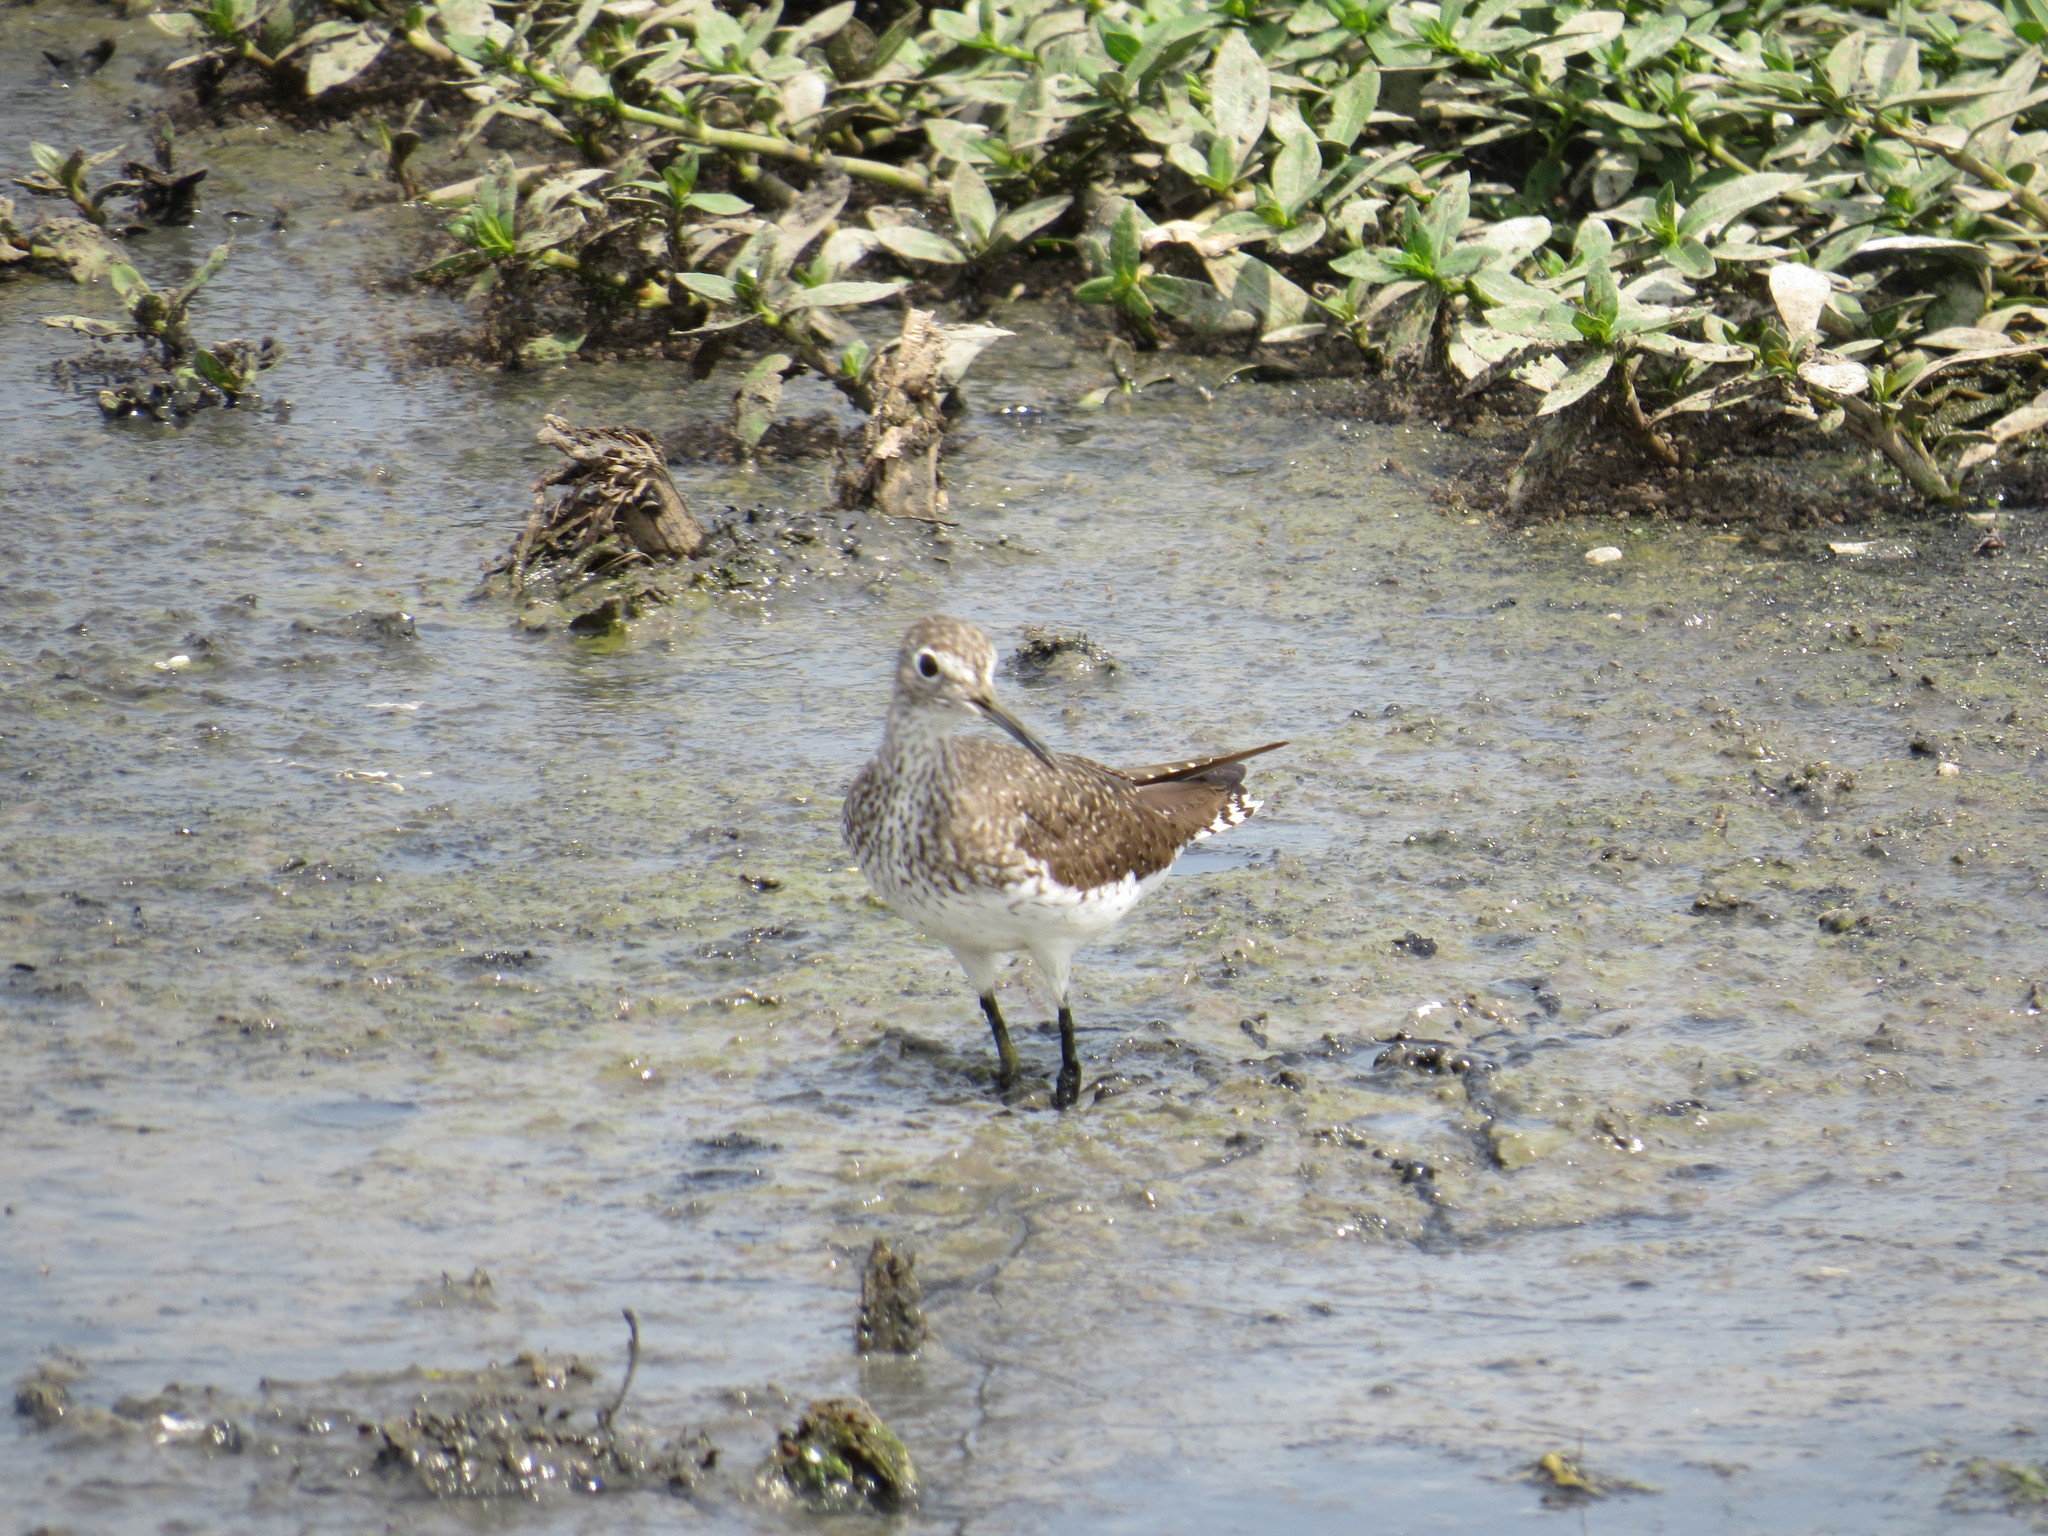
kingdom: Animalia
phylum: Chordata
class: Aves
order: Charadriiformes
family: Scolopacidae
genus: Tringa
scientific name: Tringa solitaria
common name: Solitary sandpiper
